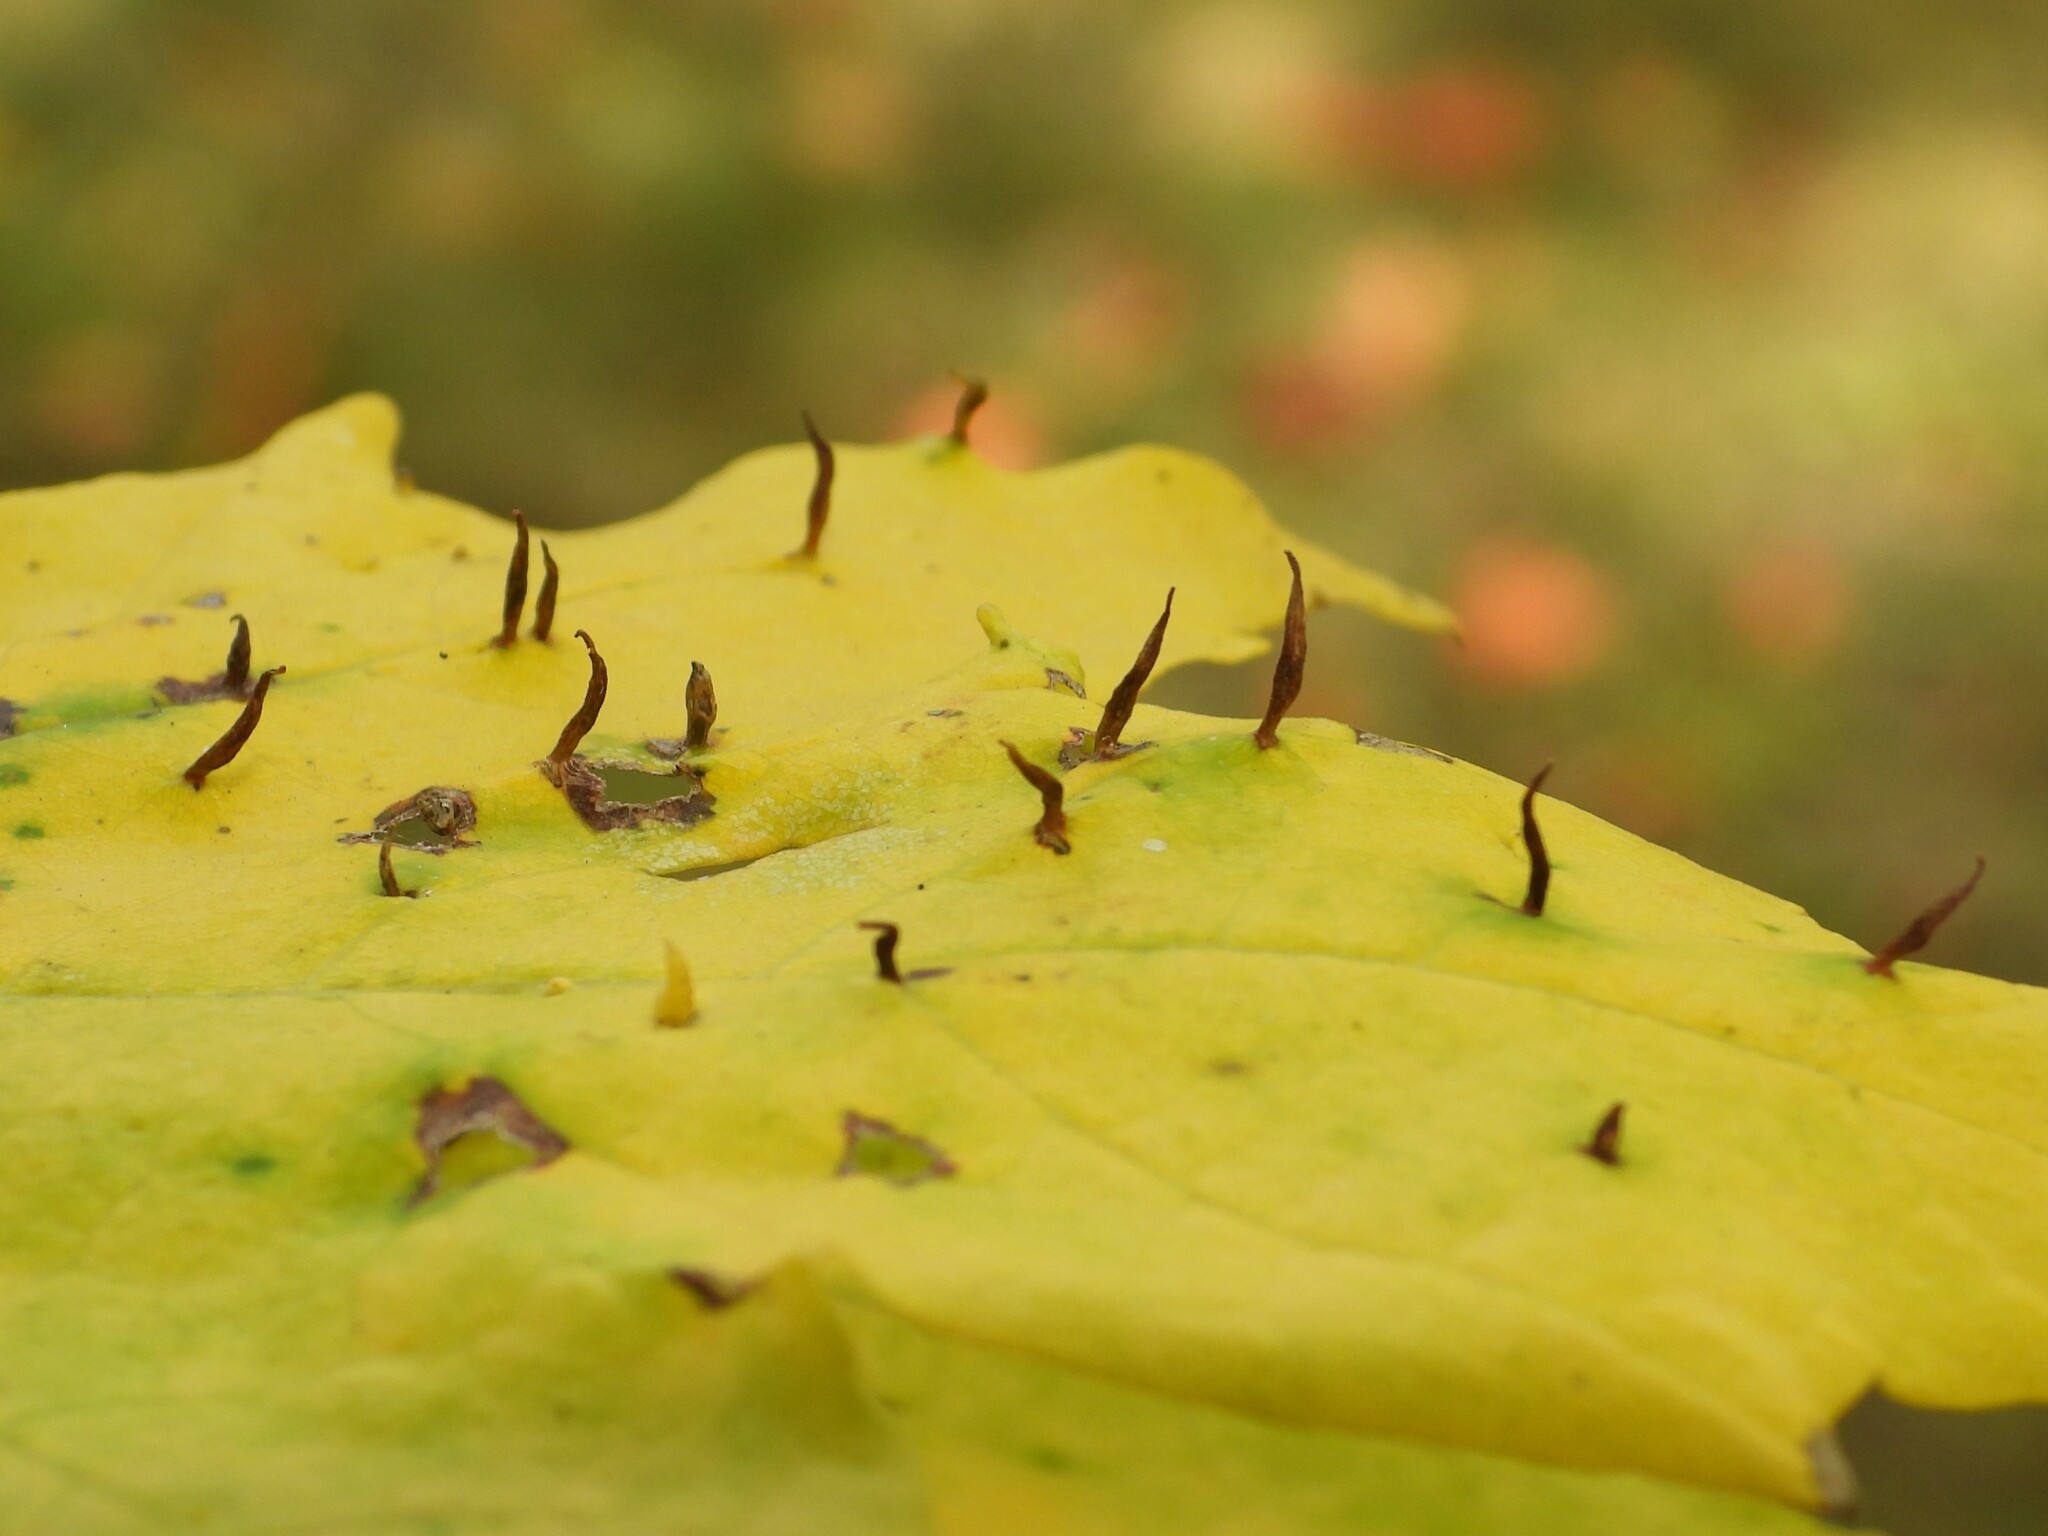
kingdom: Animalia
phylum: Arthropoda
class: Arachnida
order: Trombidiformes
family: Eriophyidae
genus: Vasates
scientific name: Vasates aceriscrumena
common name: Maple spindle gall mite
